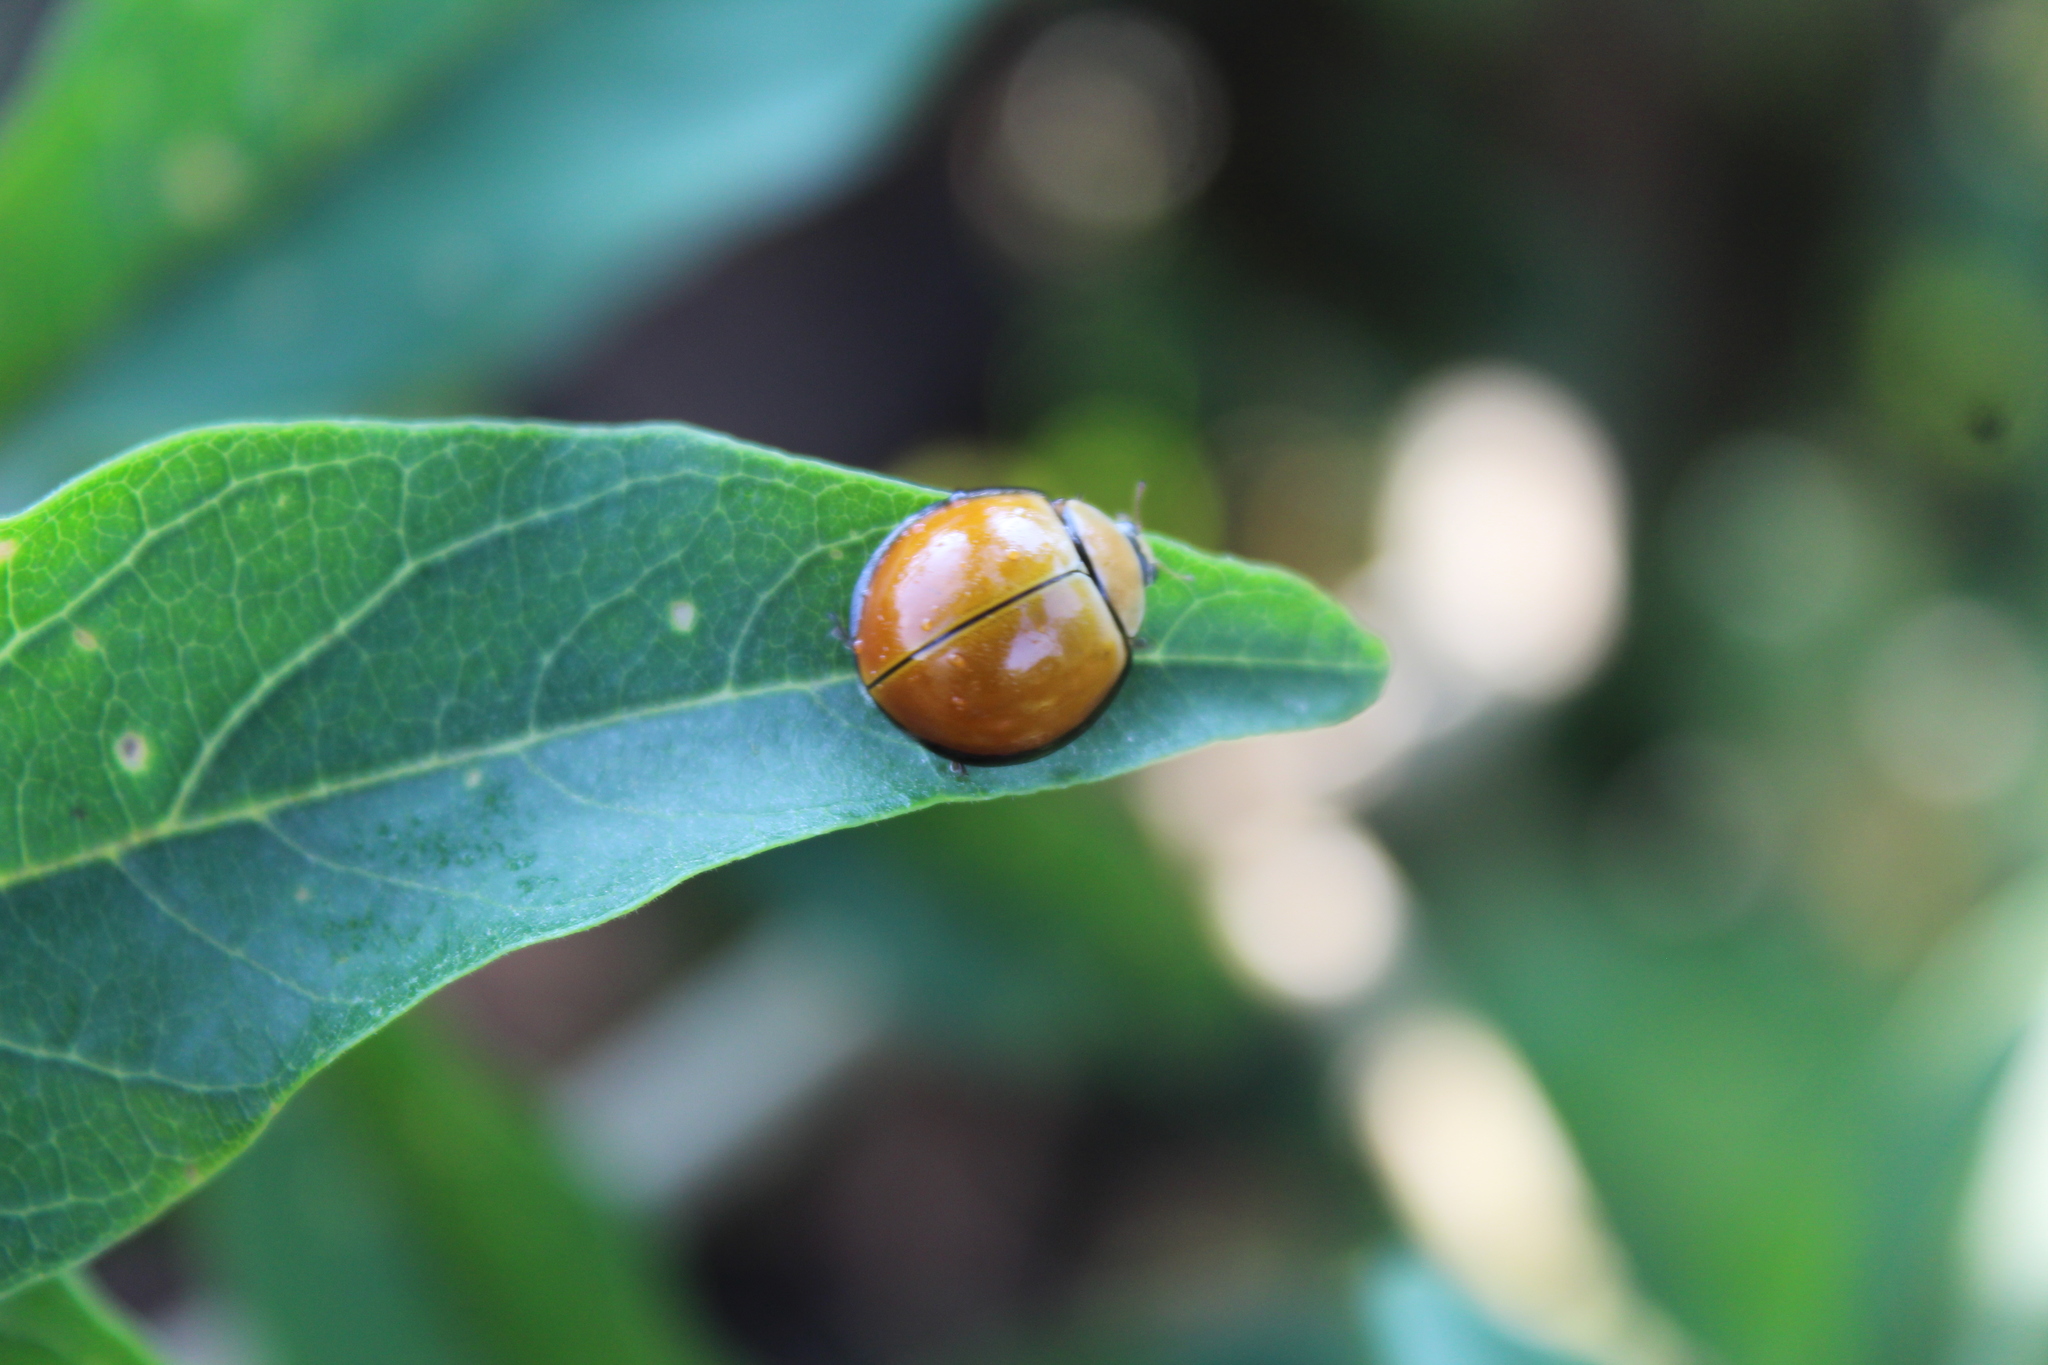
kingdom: Animalia
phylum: Arthropoda
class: Insecta
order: Coleoptera
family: Coccinellidae
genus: Neda
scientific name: Neda
